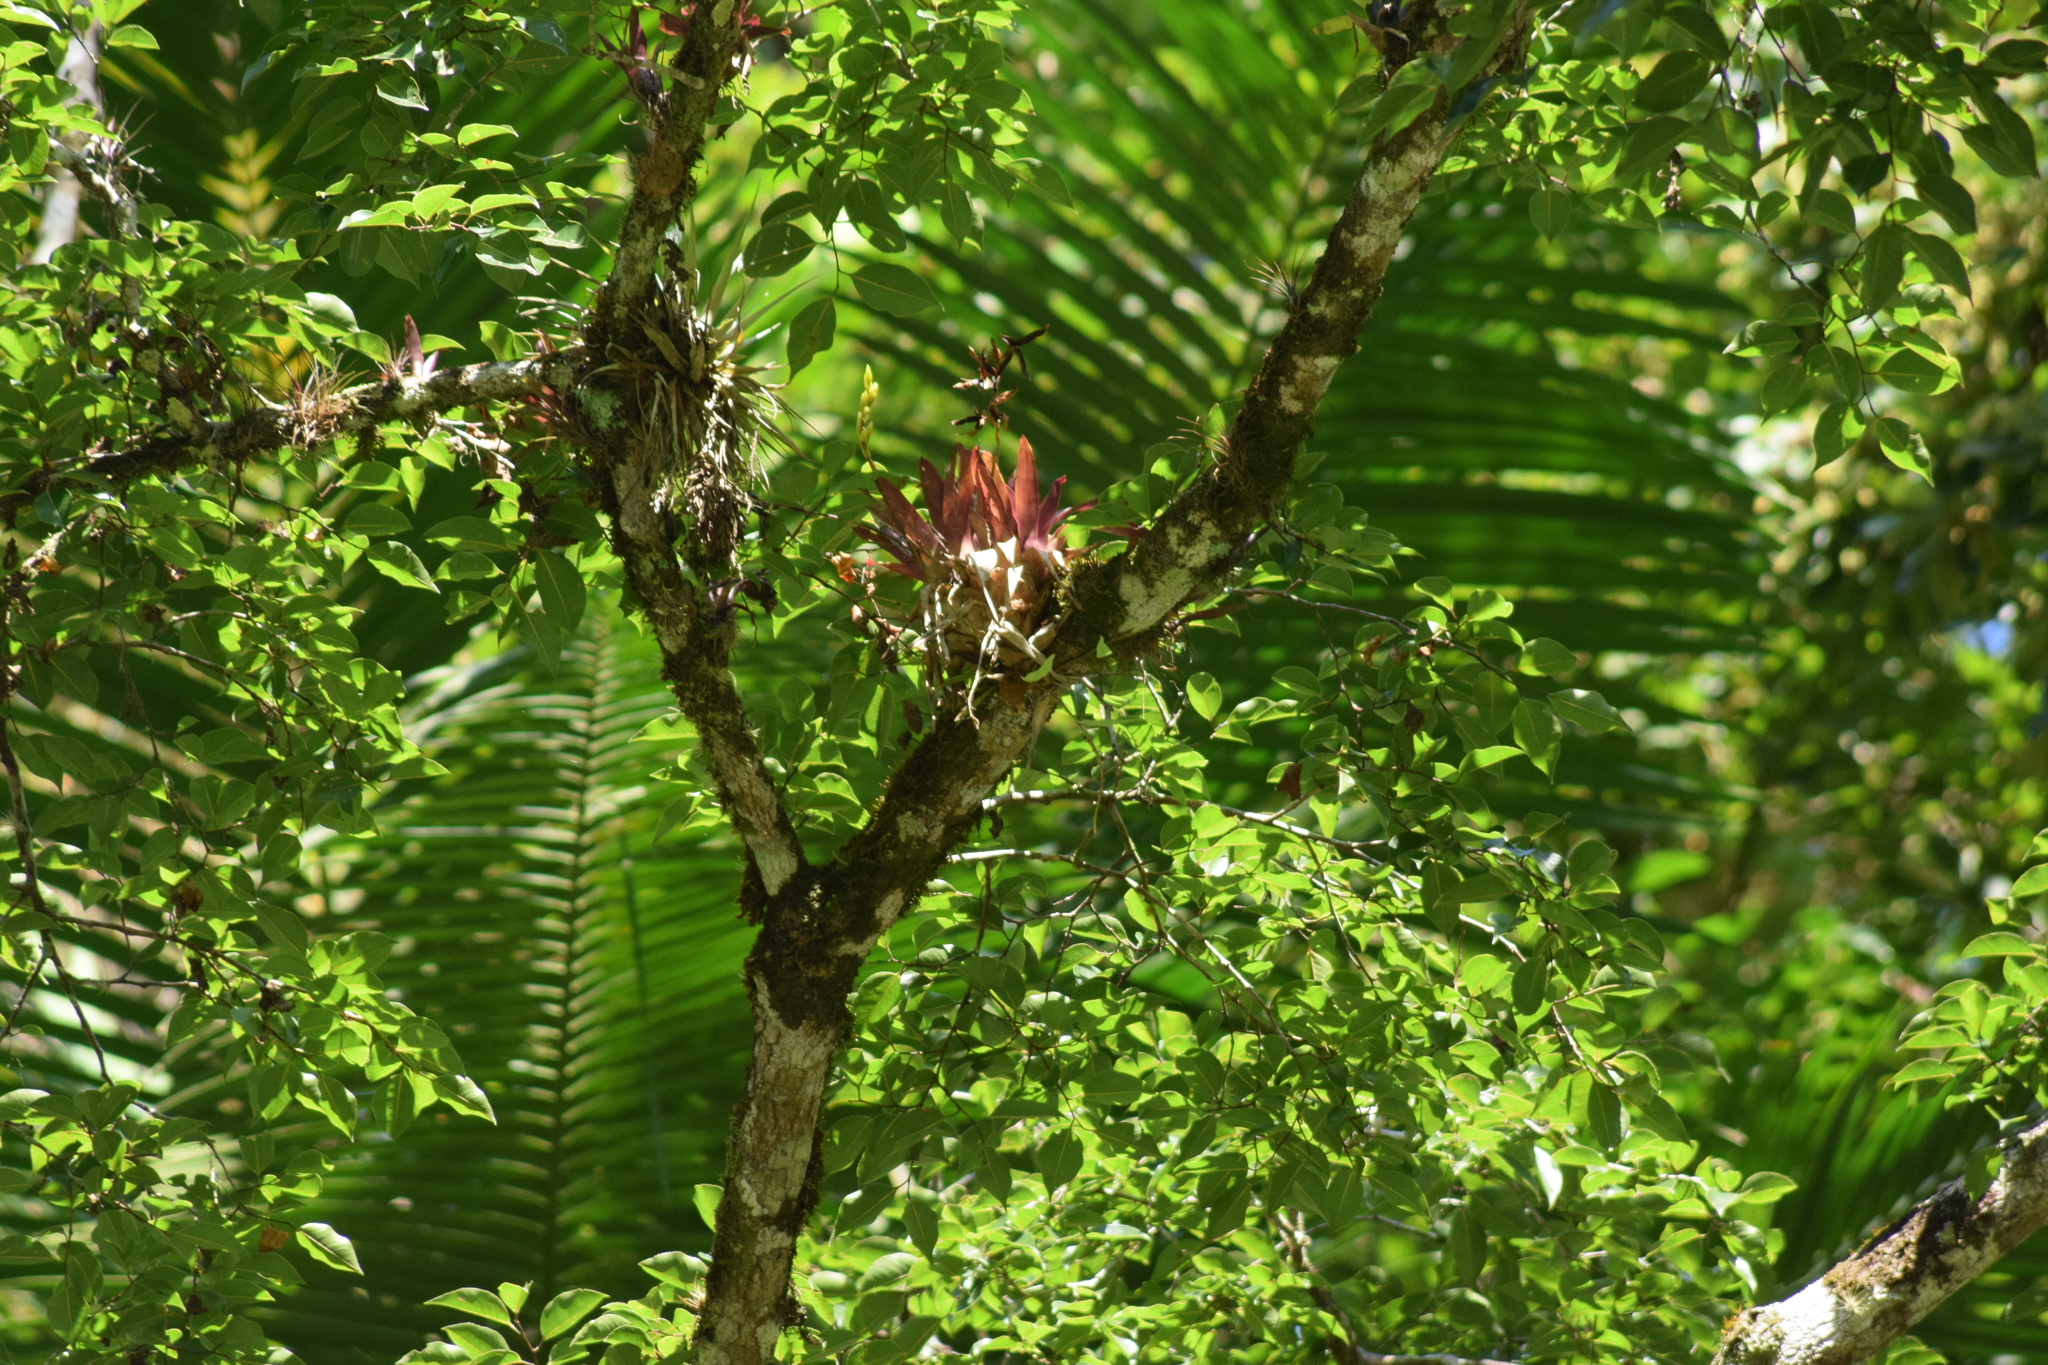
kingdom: Plantae
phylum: Tracheophyta
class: Liliopsida
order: Poales
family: Bromeliaceae
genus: Vriesea
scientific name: Vriesea rodigasiana
